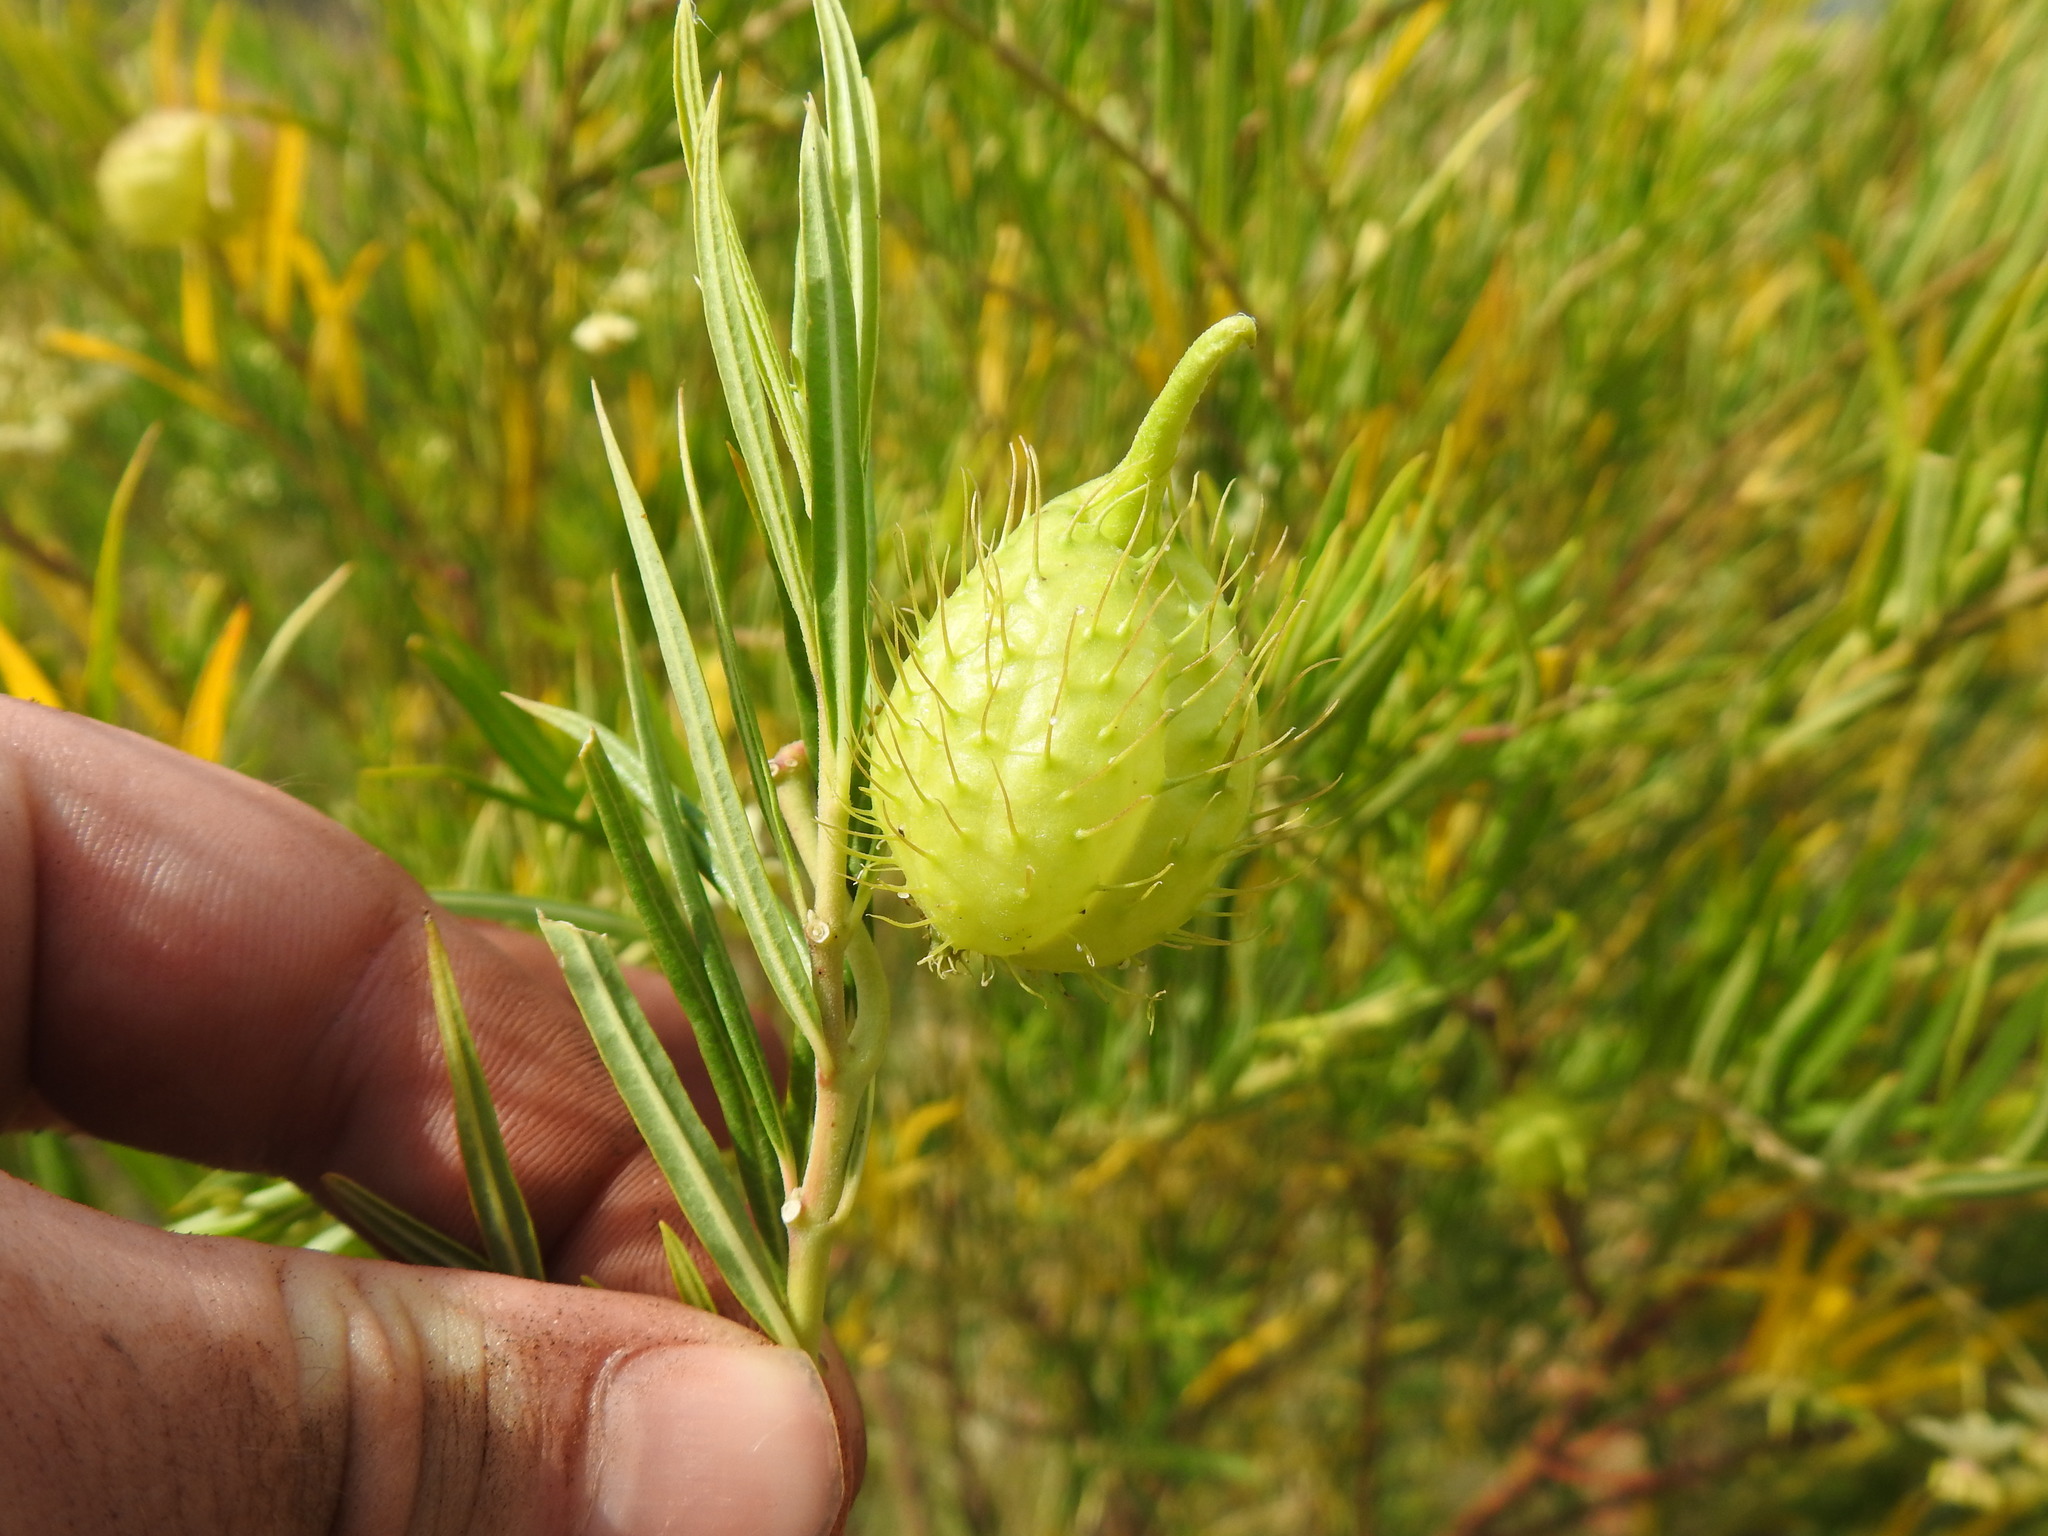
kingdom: Plantae
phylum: Tracheophyta
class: Magnoliopsida
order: Gentianales
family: Apocynaceae
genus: Gomphocarpus
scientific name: Gomphocarpus fruticosus
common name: Milkweed
